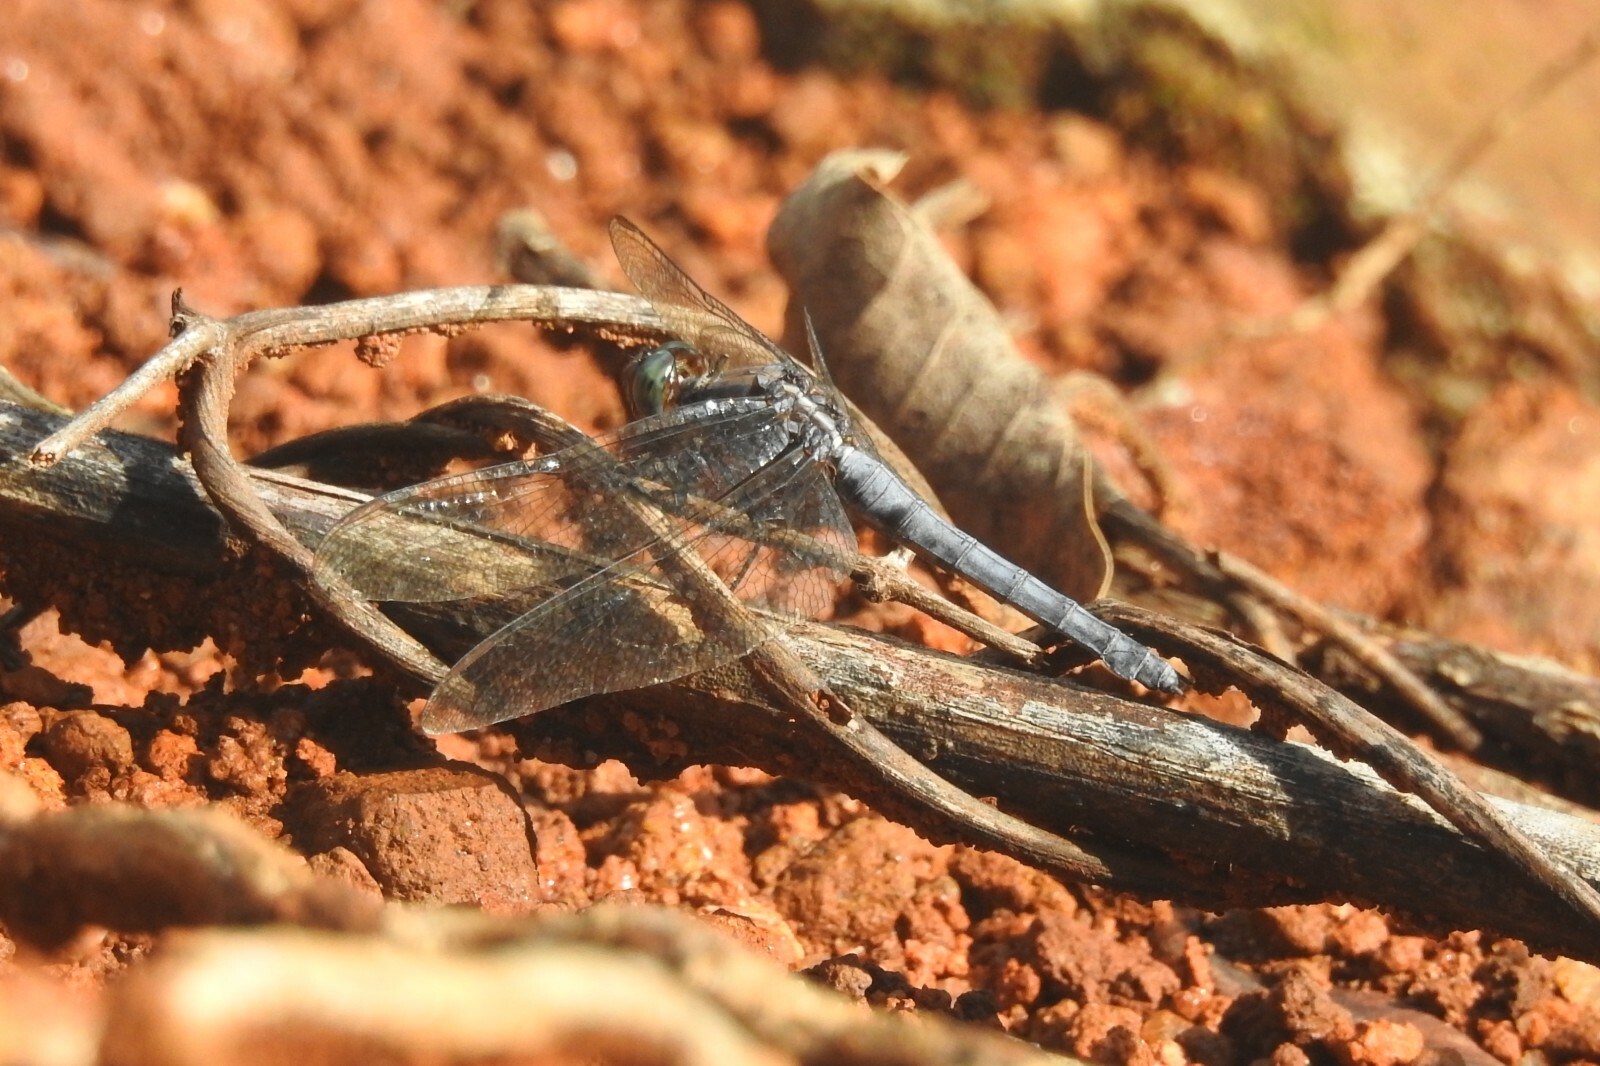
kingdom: Animalia
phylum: Arthropoda
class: Insecta
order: Odonata
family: Libellulidae
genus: Orthetrum
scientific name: Orthetrum glaucum
